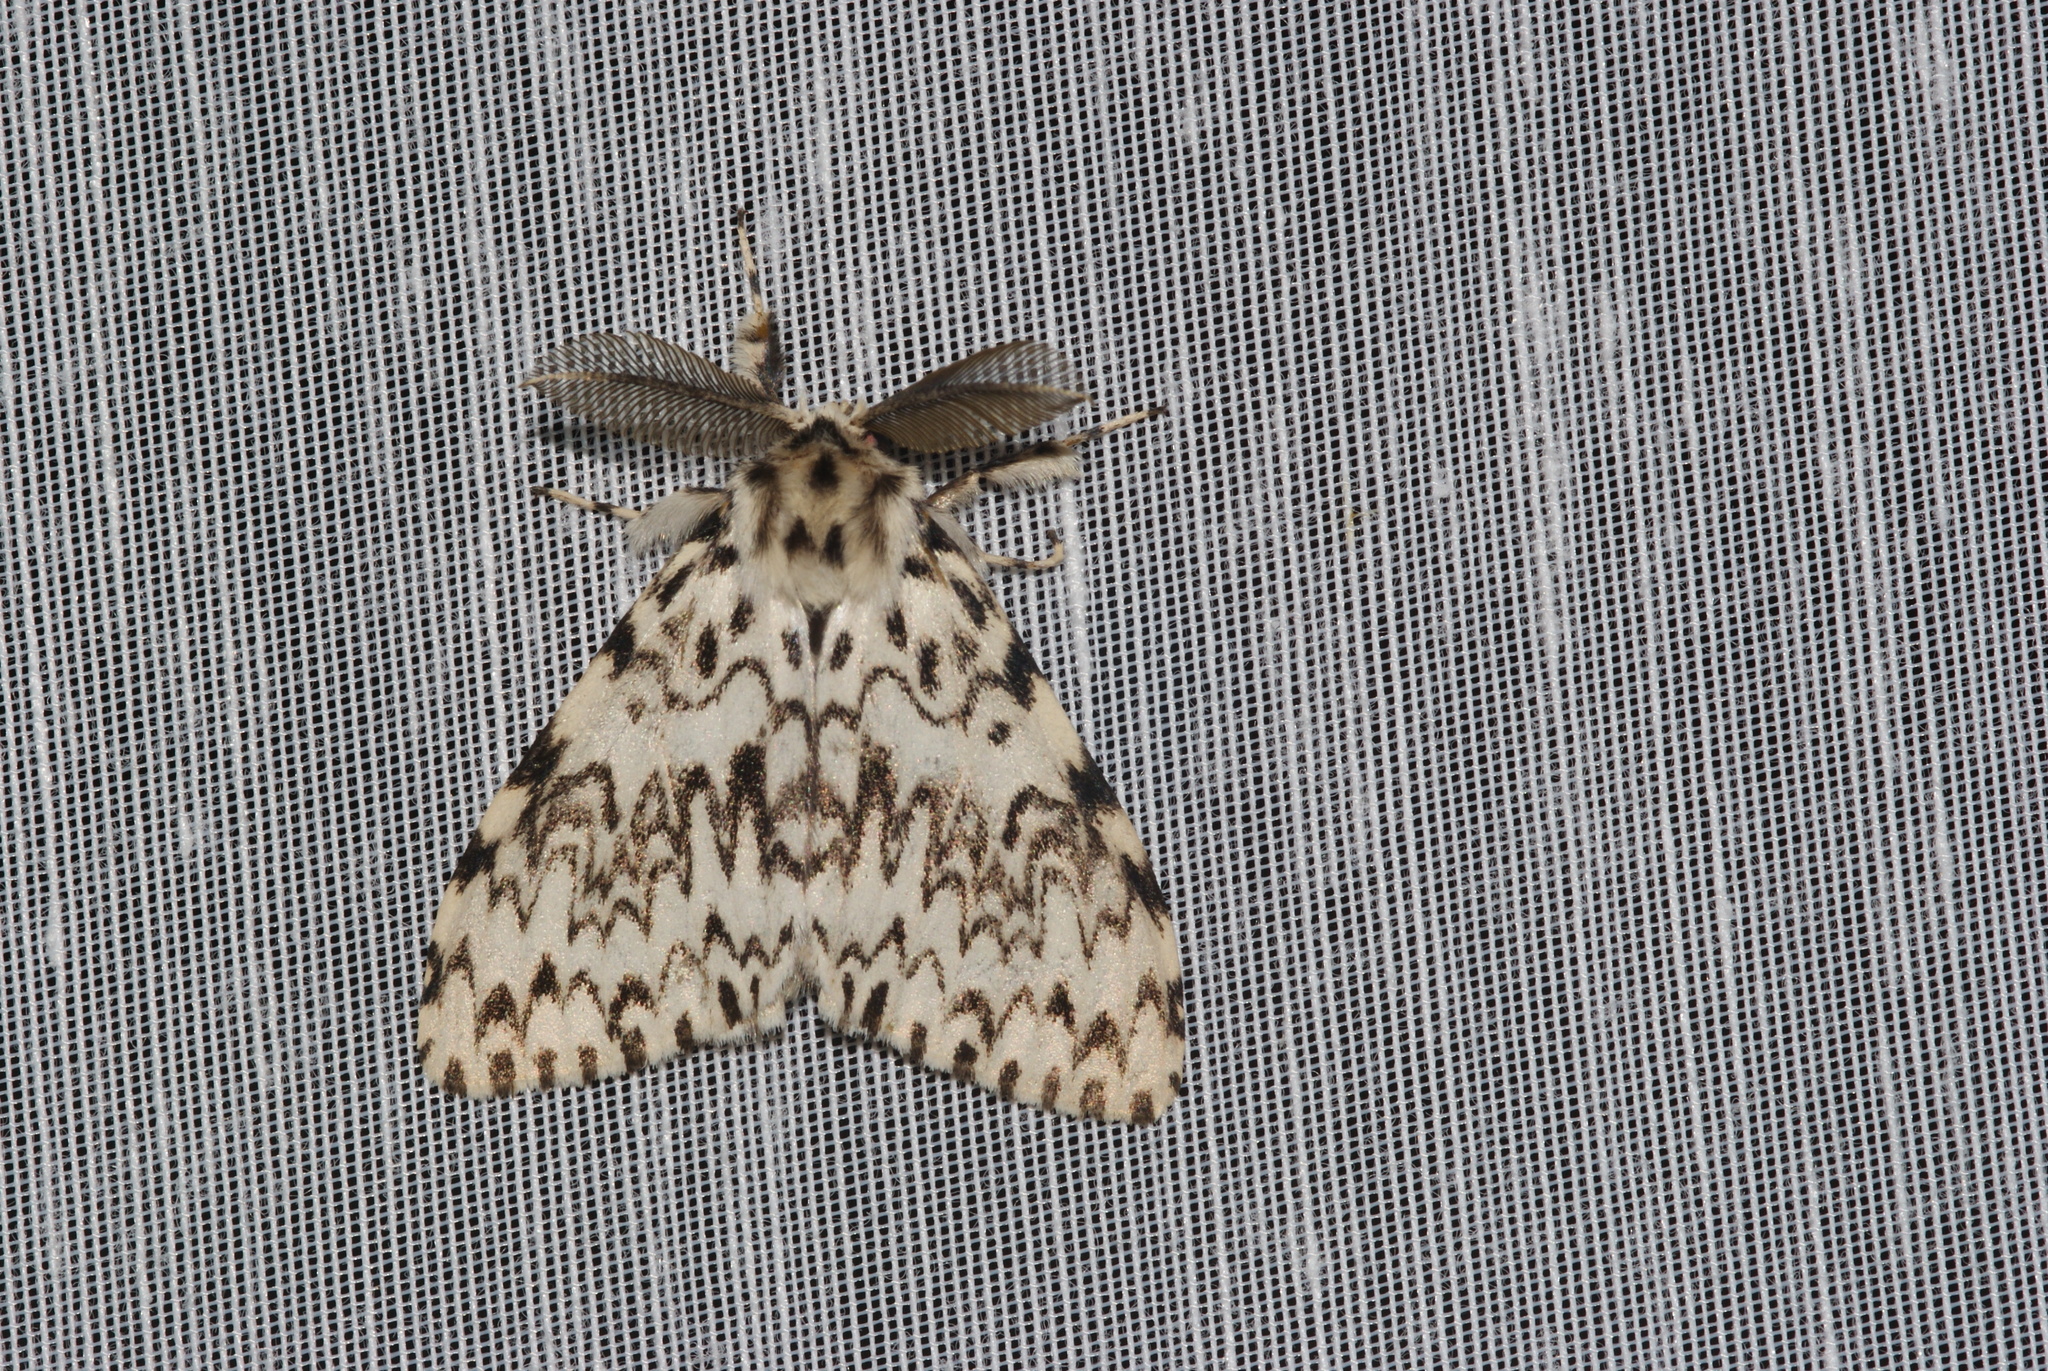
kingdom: Animalia
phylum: Arthropoda
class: Insecta
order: Lepidoptera
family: Erebidae
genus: Lymantria
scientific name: Lymantria monacha
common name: Black arches
